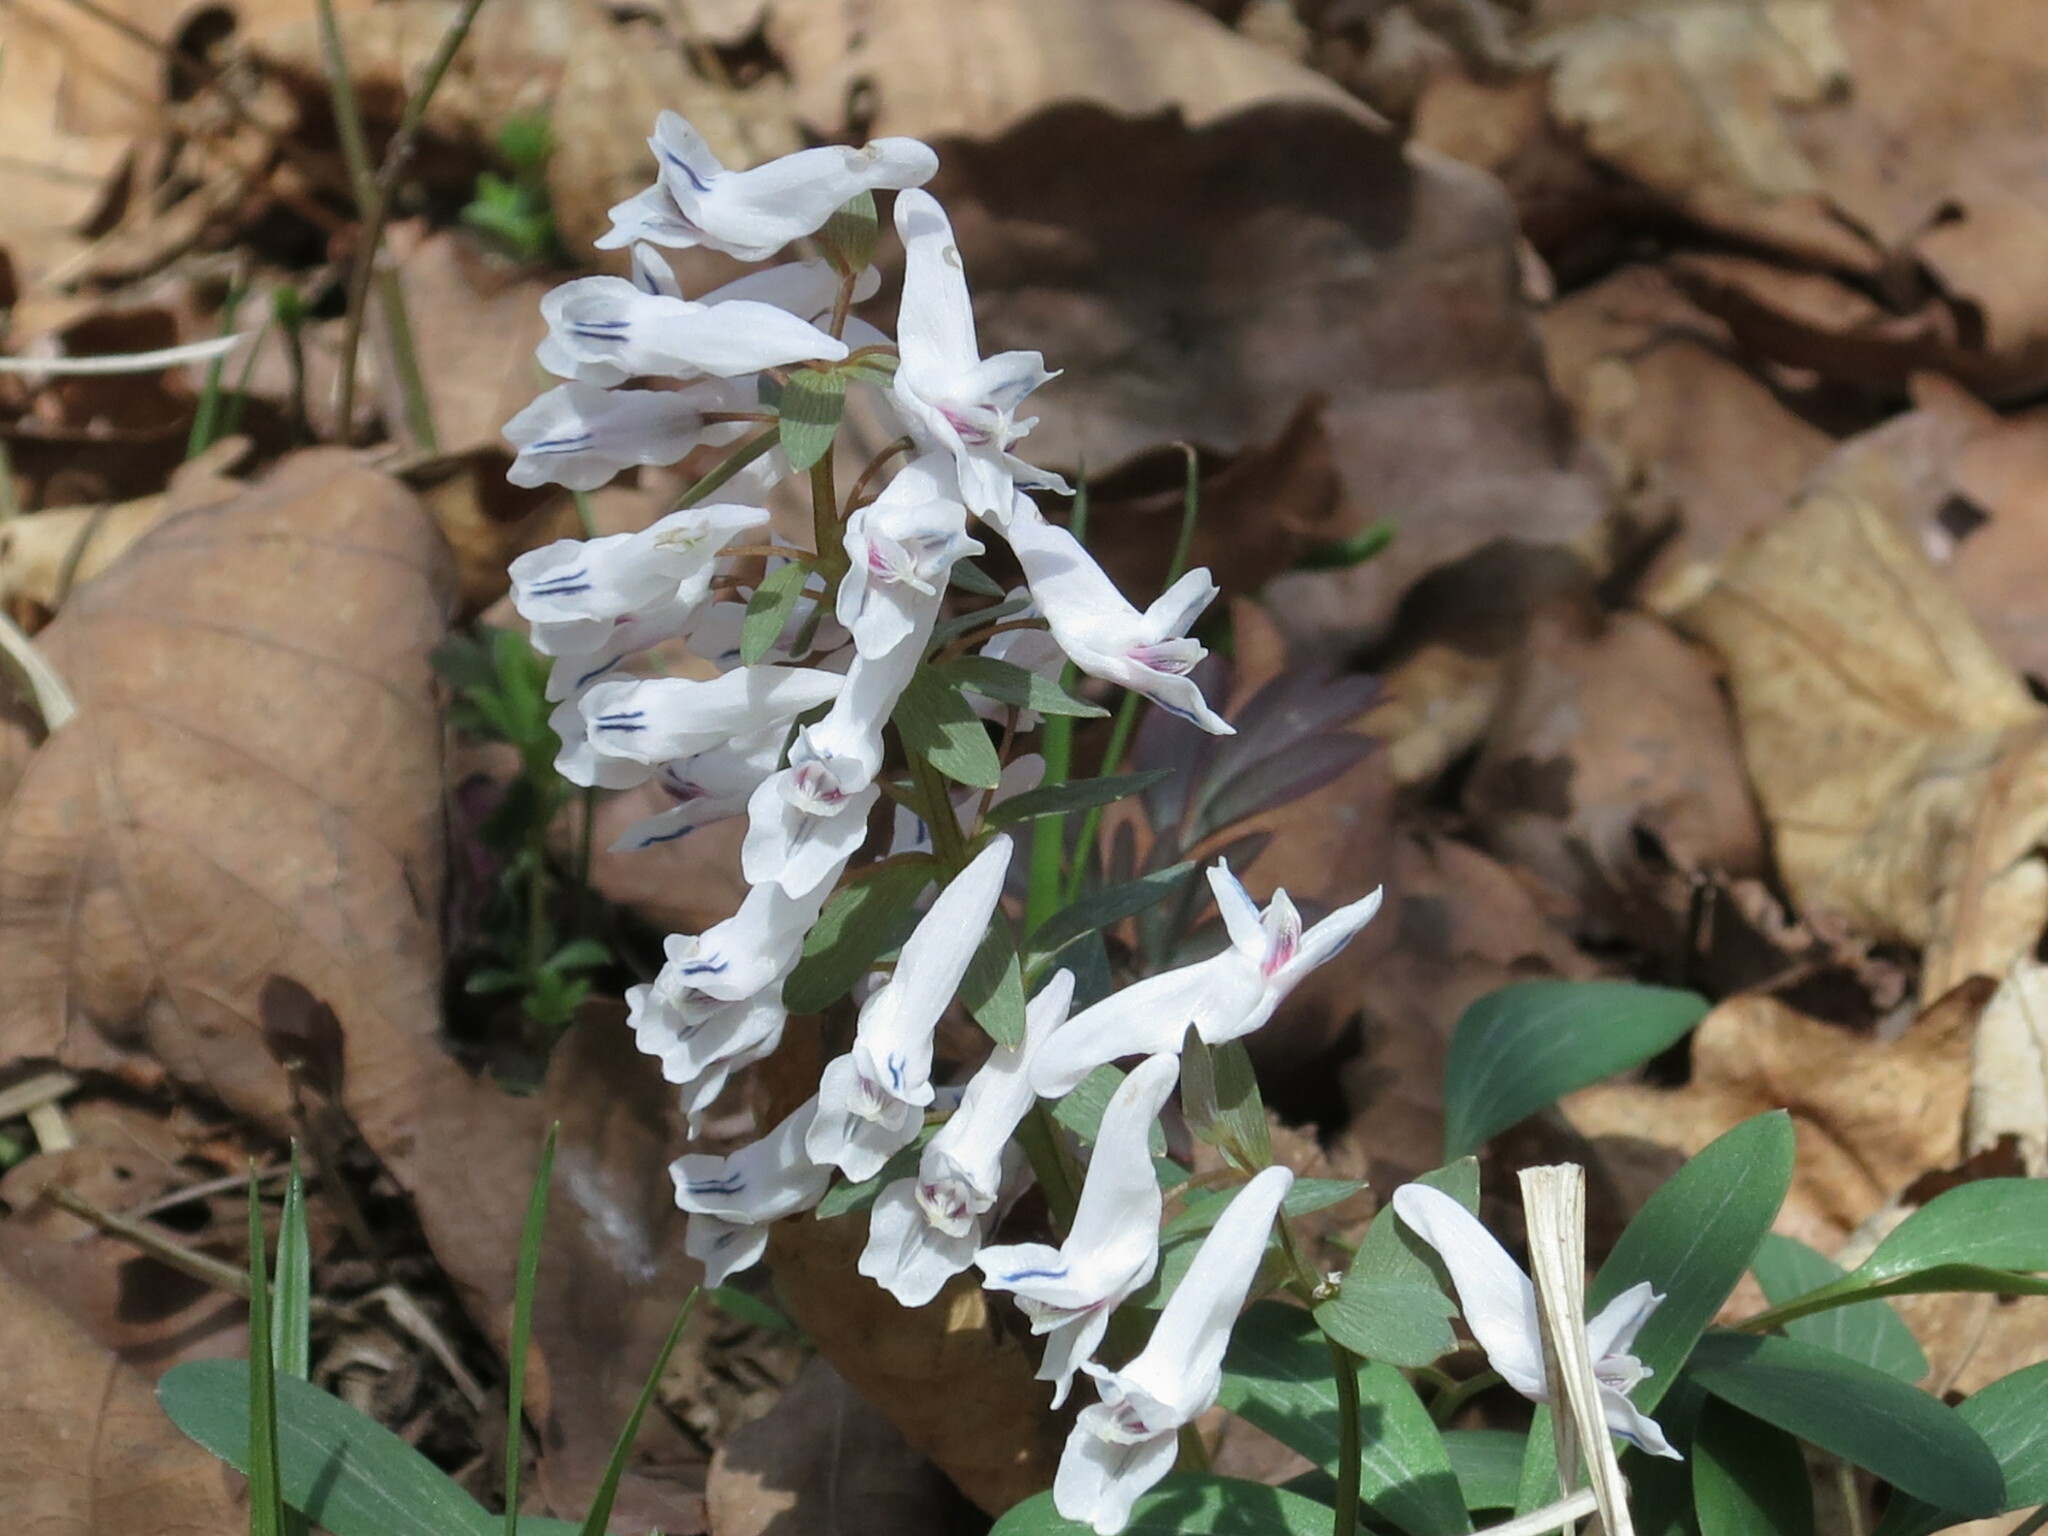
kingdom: Plantae
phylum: Tracheophyta
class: Magnoliopsida
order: Ranunculales
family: Papaveraceae
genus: Corydalis
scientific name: Corydalis repens
